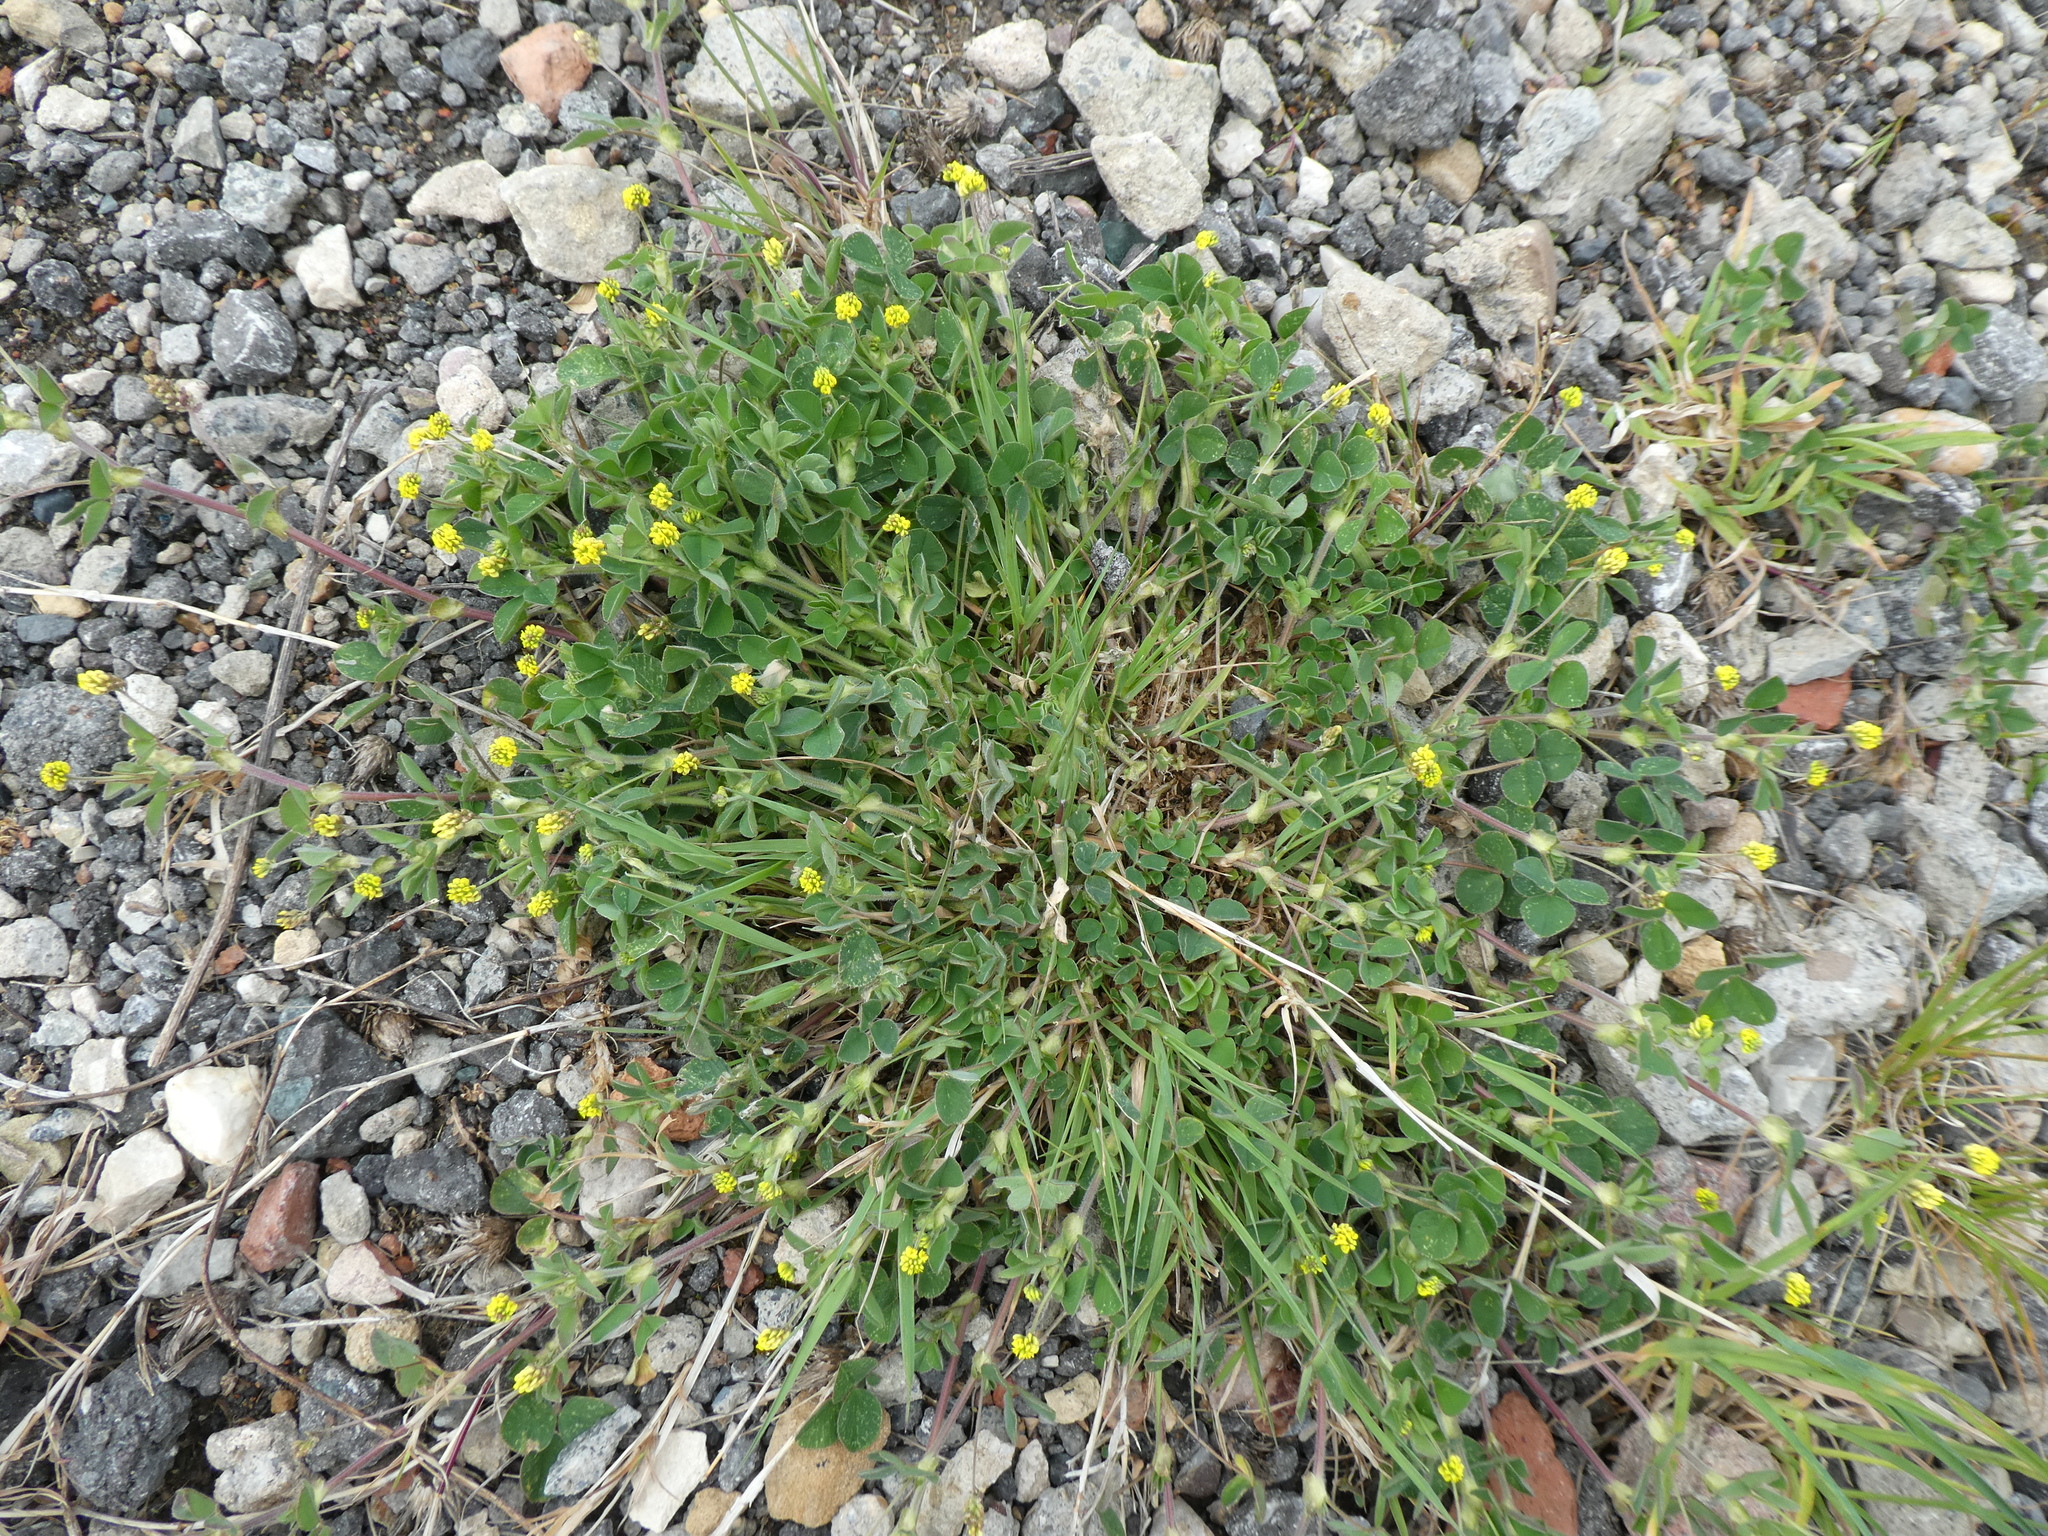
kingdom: Plantae
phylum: Tracheophyta
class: Magnoliopsida
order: Fabales
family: Fabaceae
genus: Medicago
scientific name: Medicago lupulina
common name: Black medick
